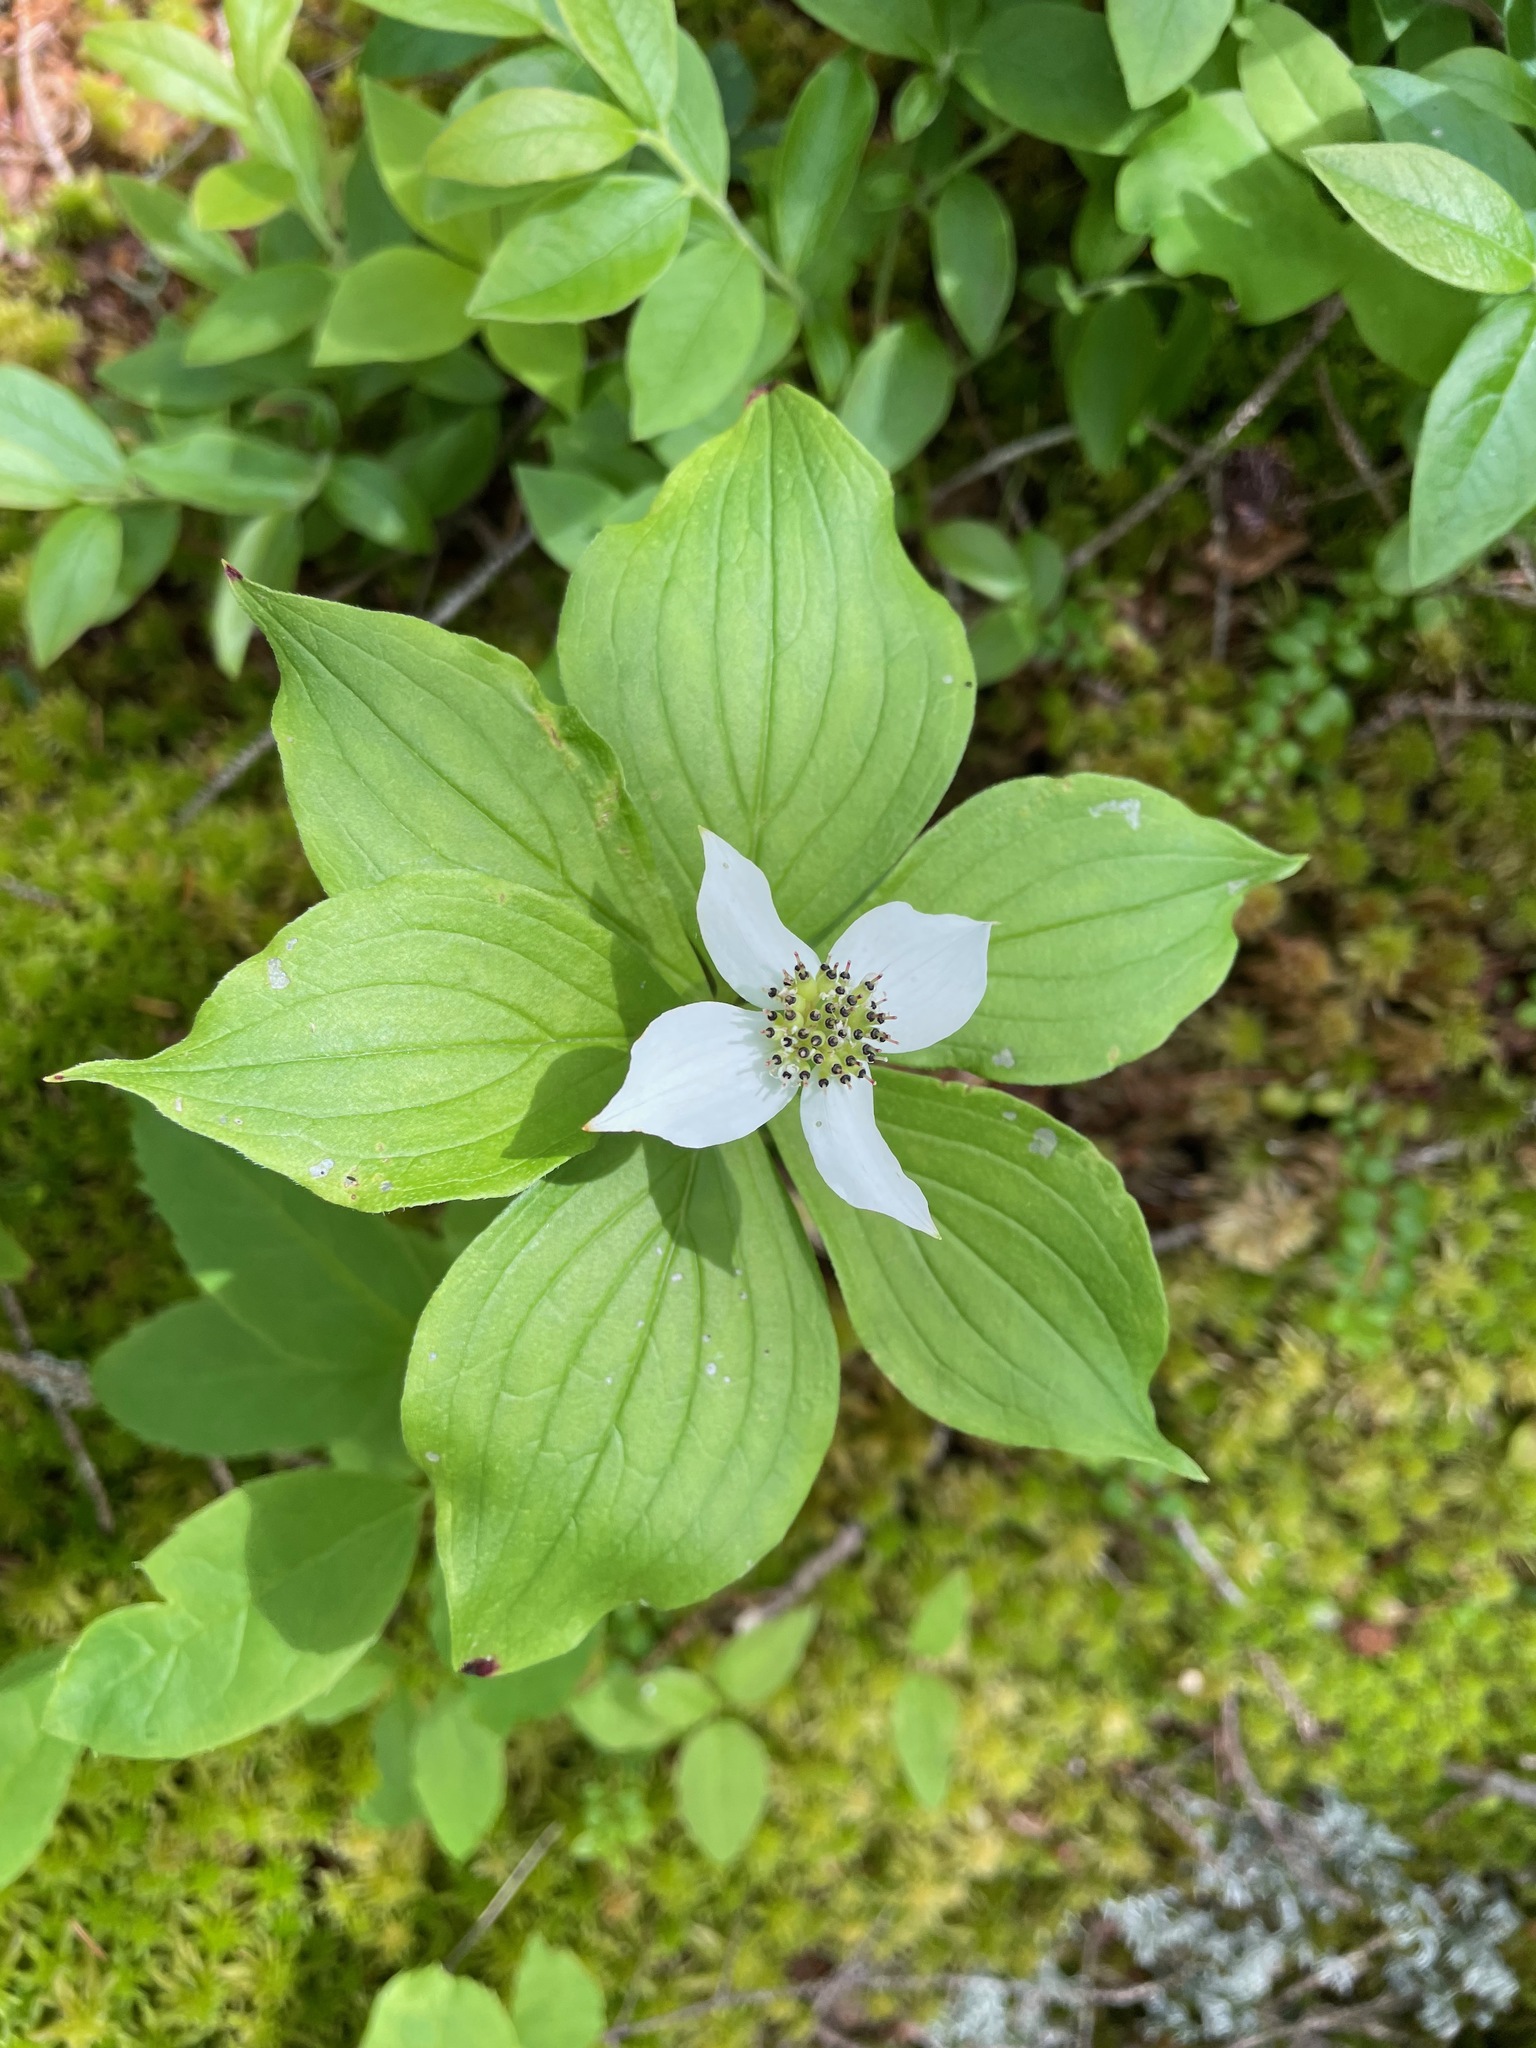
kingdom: Plantae
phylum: Tracheophyta
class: Magnoliopsida
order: Cornales
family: Cornaceae
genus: Cornus
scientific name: Cornus canadensis
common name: Creeping dogwood
